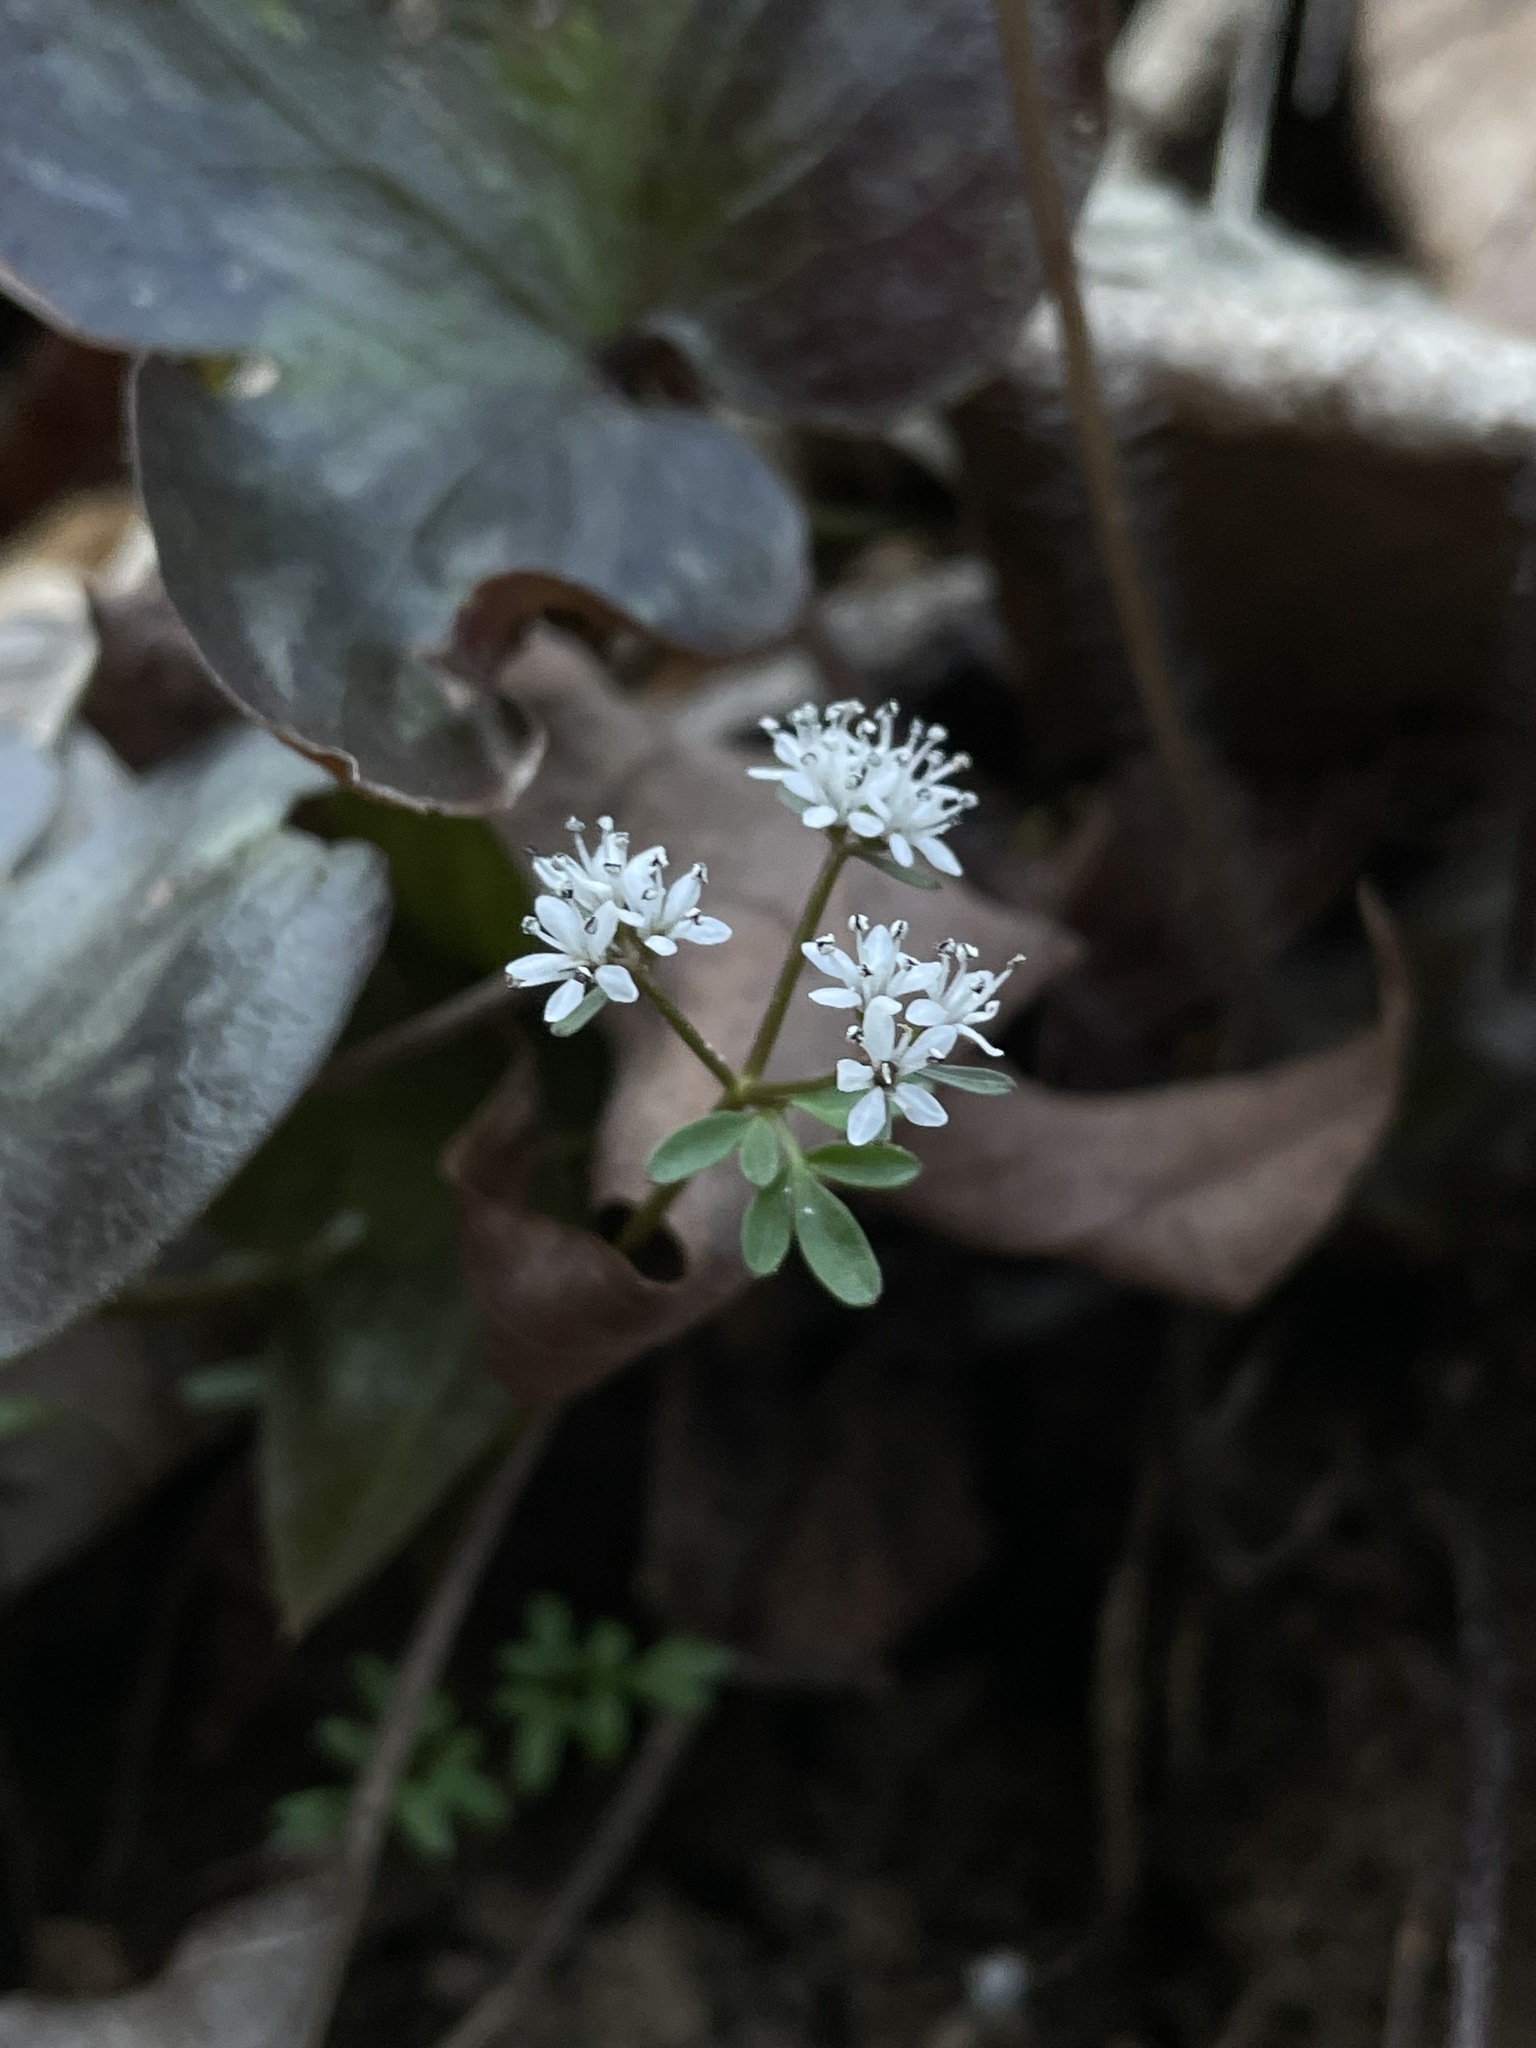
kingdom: Plantae
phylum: Tracheophyta
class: Magnoliopsida
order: Apiales
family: Apiaceae
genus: Erigenia
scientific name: Erigenia bulbosa
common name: Pepper-and-salt
